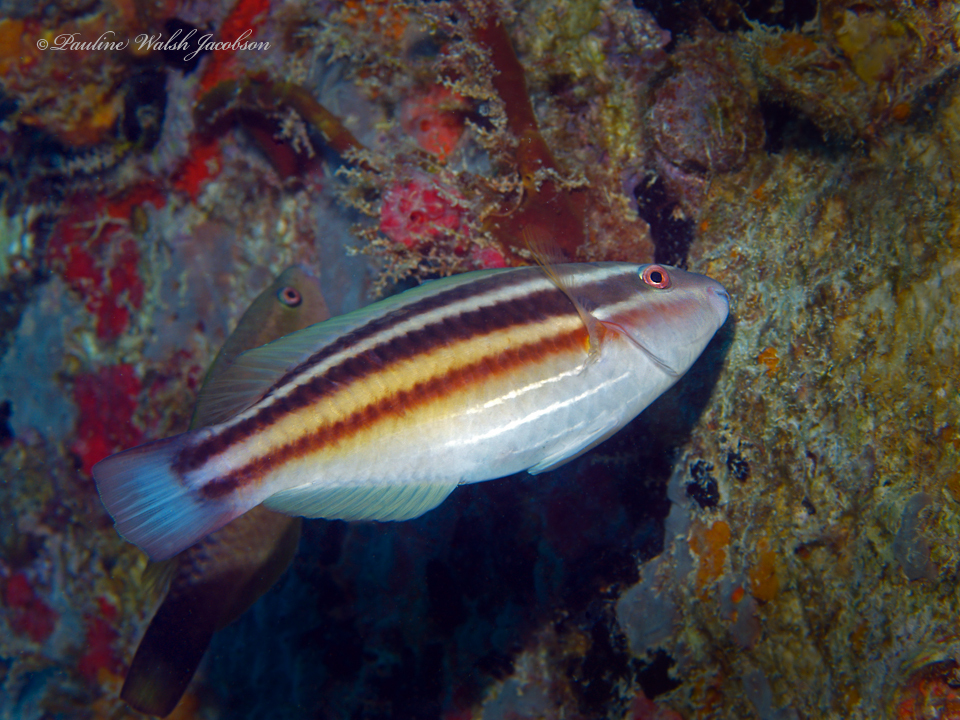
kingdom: Animalia
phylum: Chordata
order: Perciformes
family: Scaridae
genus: Scarus
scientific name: Scarus taeniopterus
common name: Princess parrotfish
